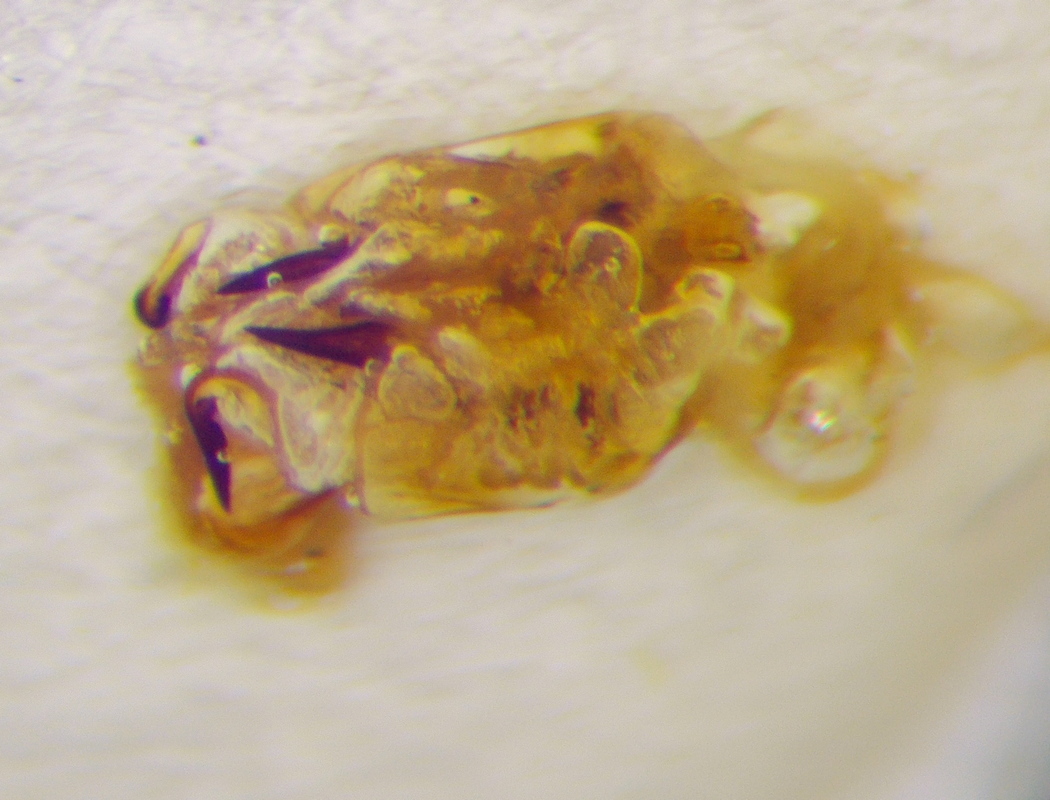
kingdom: Animalia
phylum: Arthropoda
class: Insecta
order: Hemiptera
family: Scutelleridae
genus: Eurygaster
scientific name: Eurygaster testudinaria
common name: Tortoise bug
